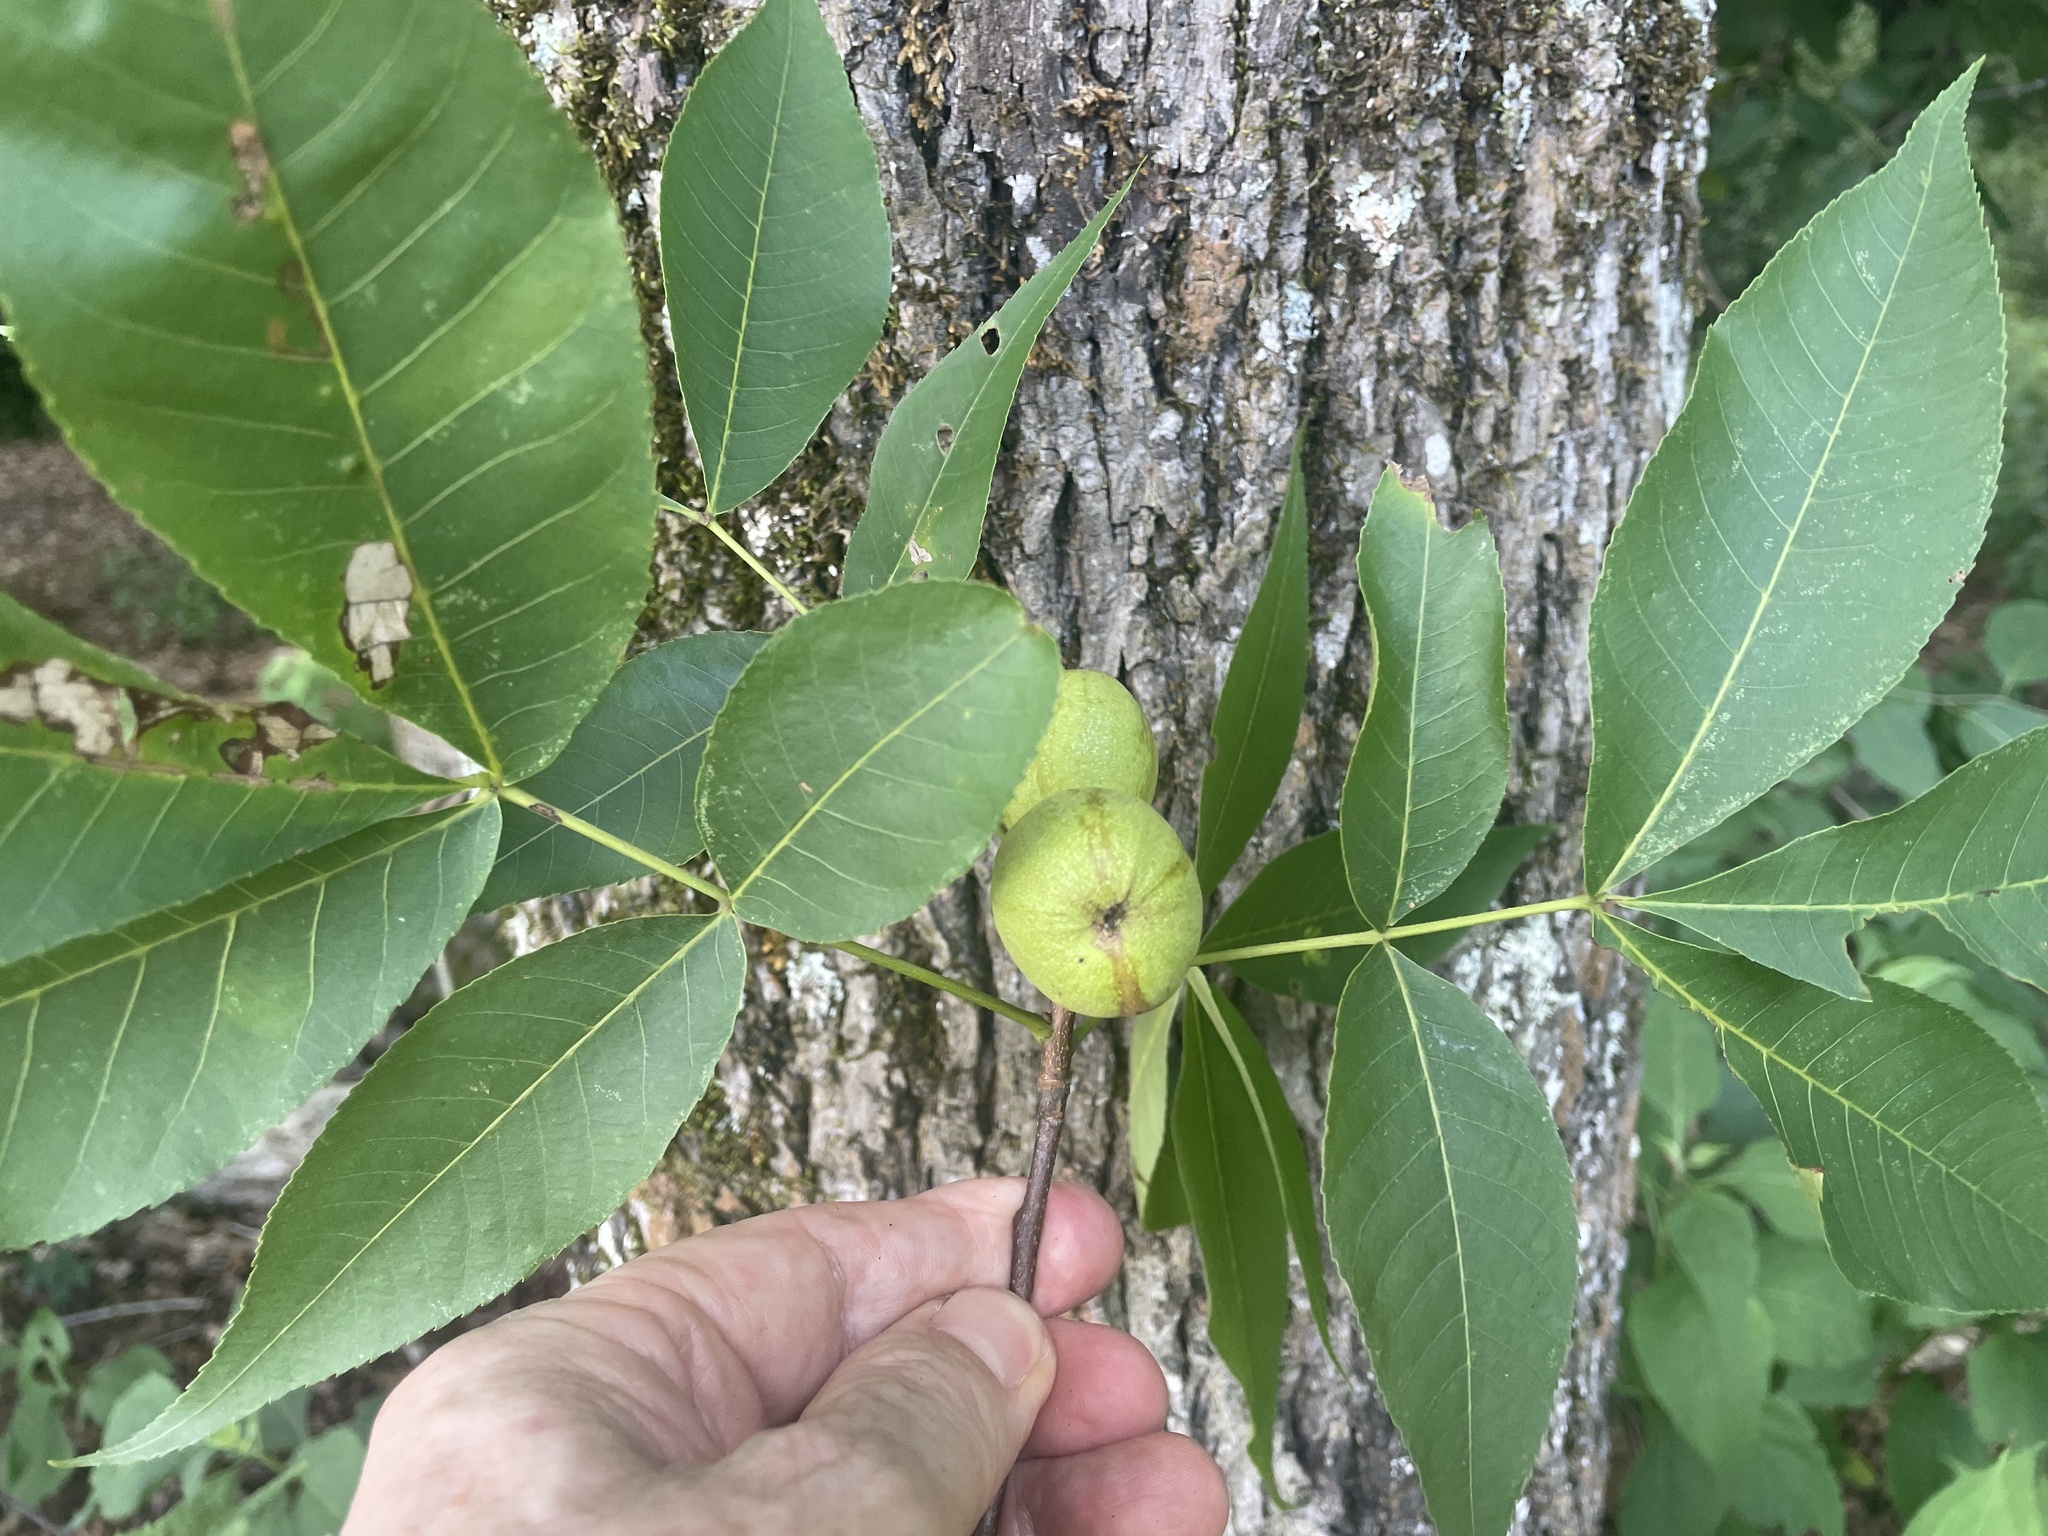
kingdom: Animalia
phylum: Arthropoda
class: Insecta
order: Diptera
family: Cecidomyiidae
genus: Caryomyia
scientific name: Caryomyia tubicola
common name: Hickory bullet gall midge
